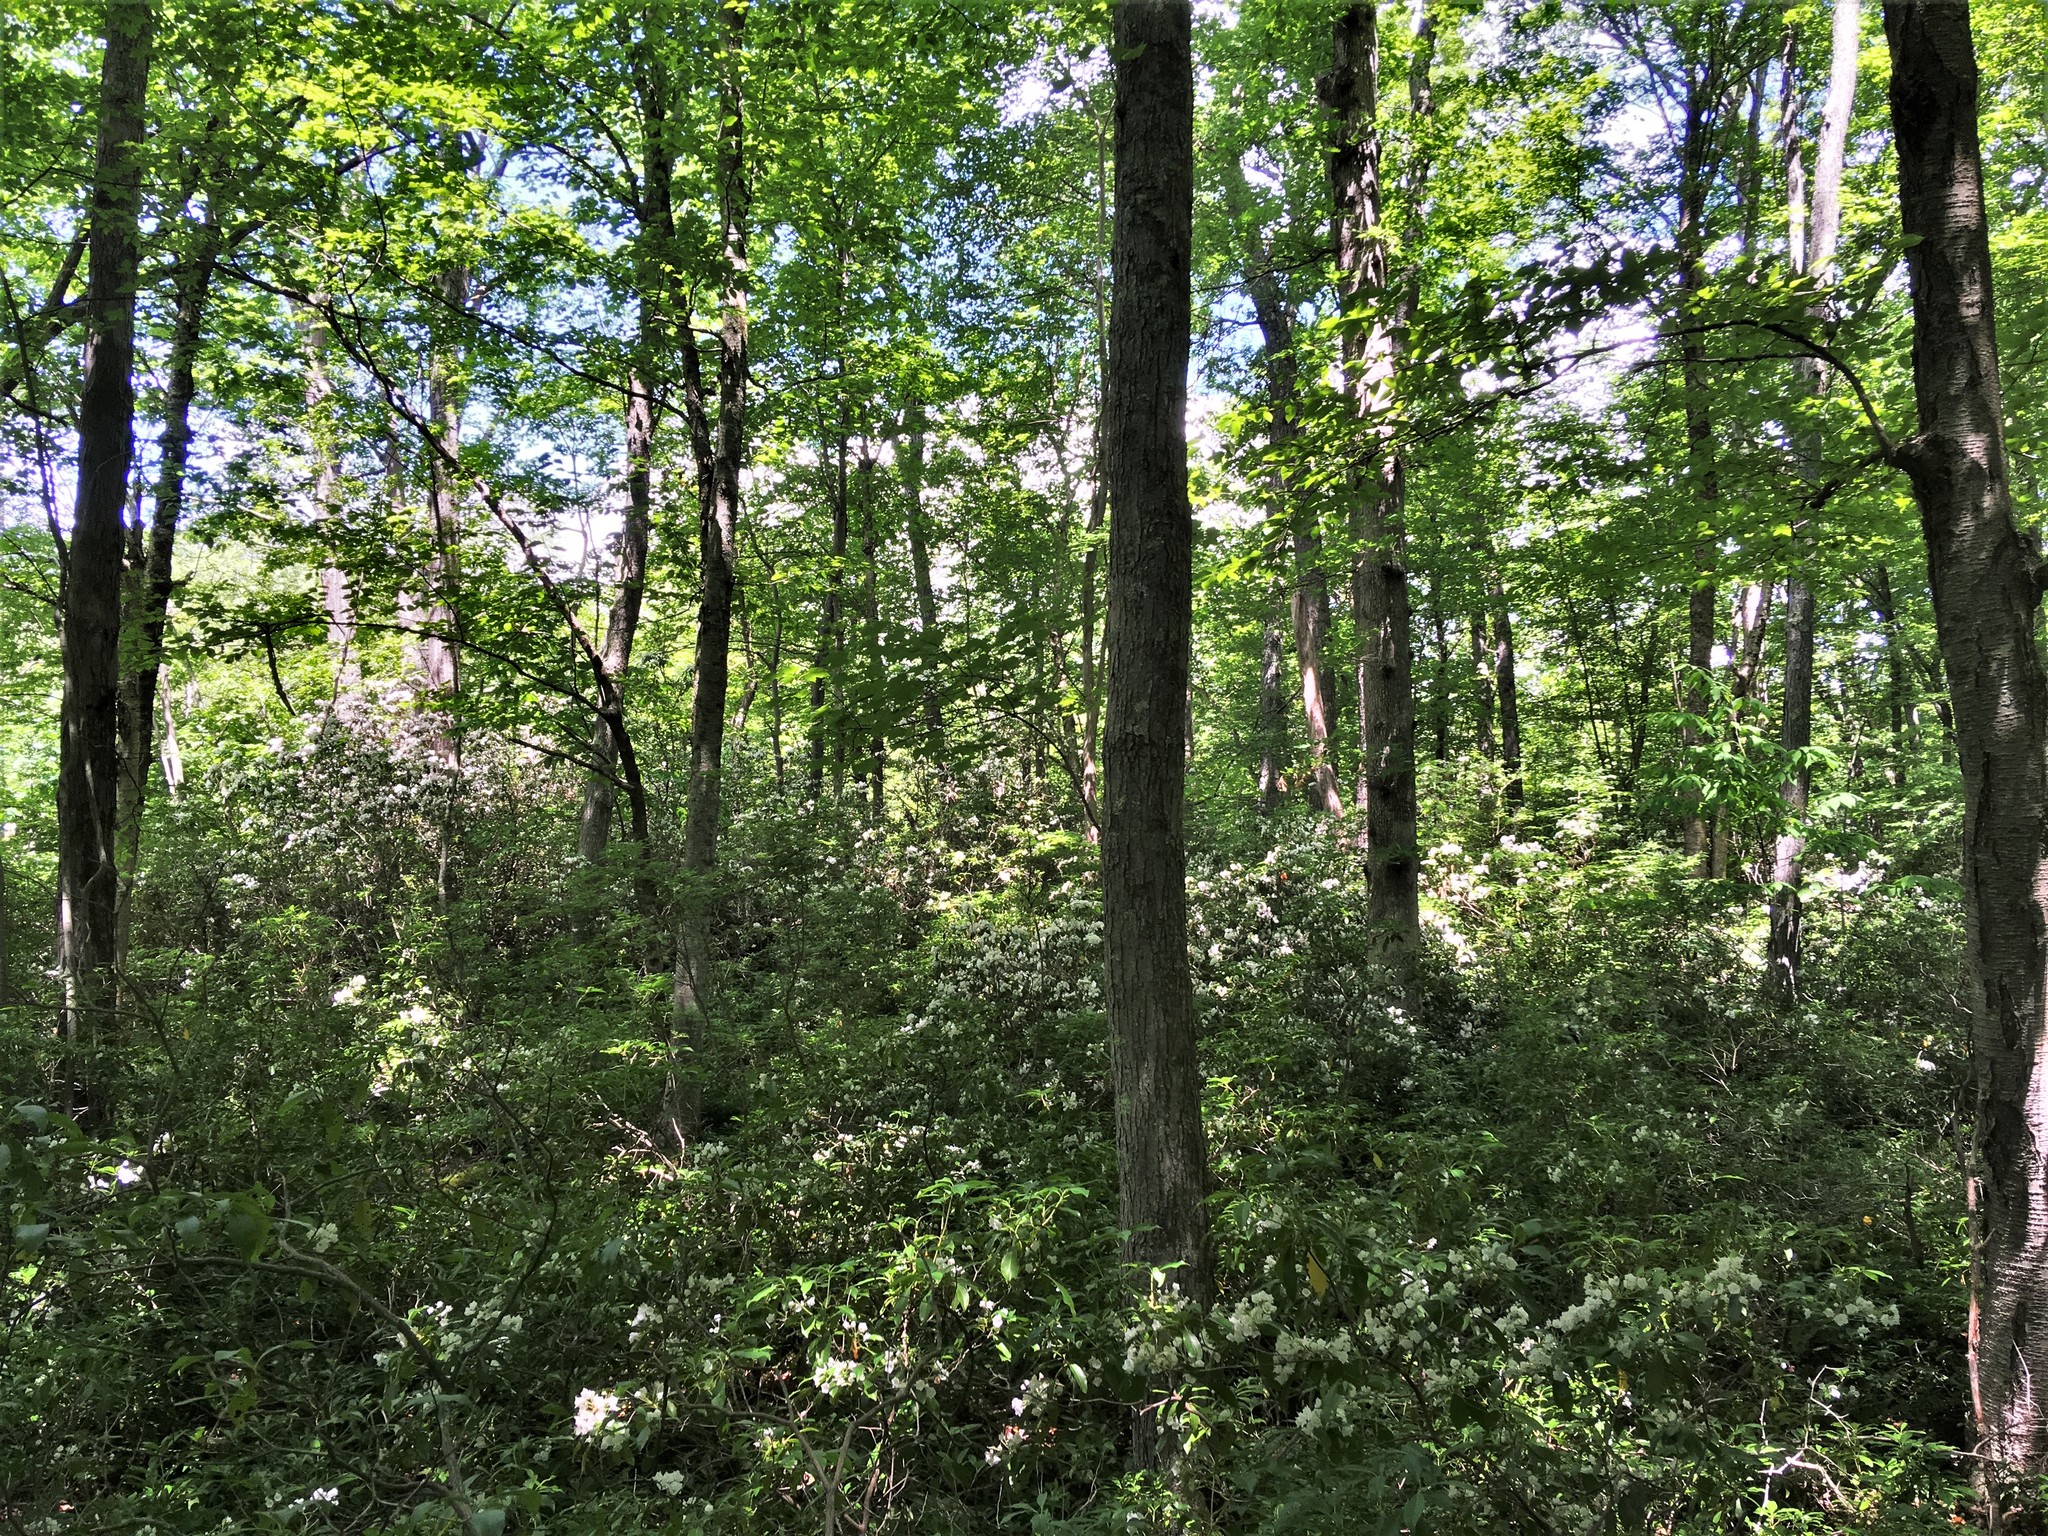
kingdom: Plantae
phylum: Tracheophyta
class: Magnoliopsida
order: Ericales
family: Ericaceae
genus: Kalmia
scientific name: Kalmia latifolia
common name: Mountain-laurel
